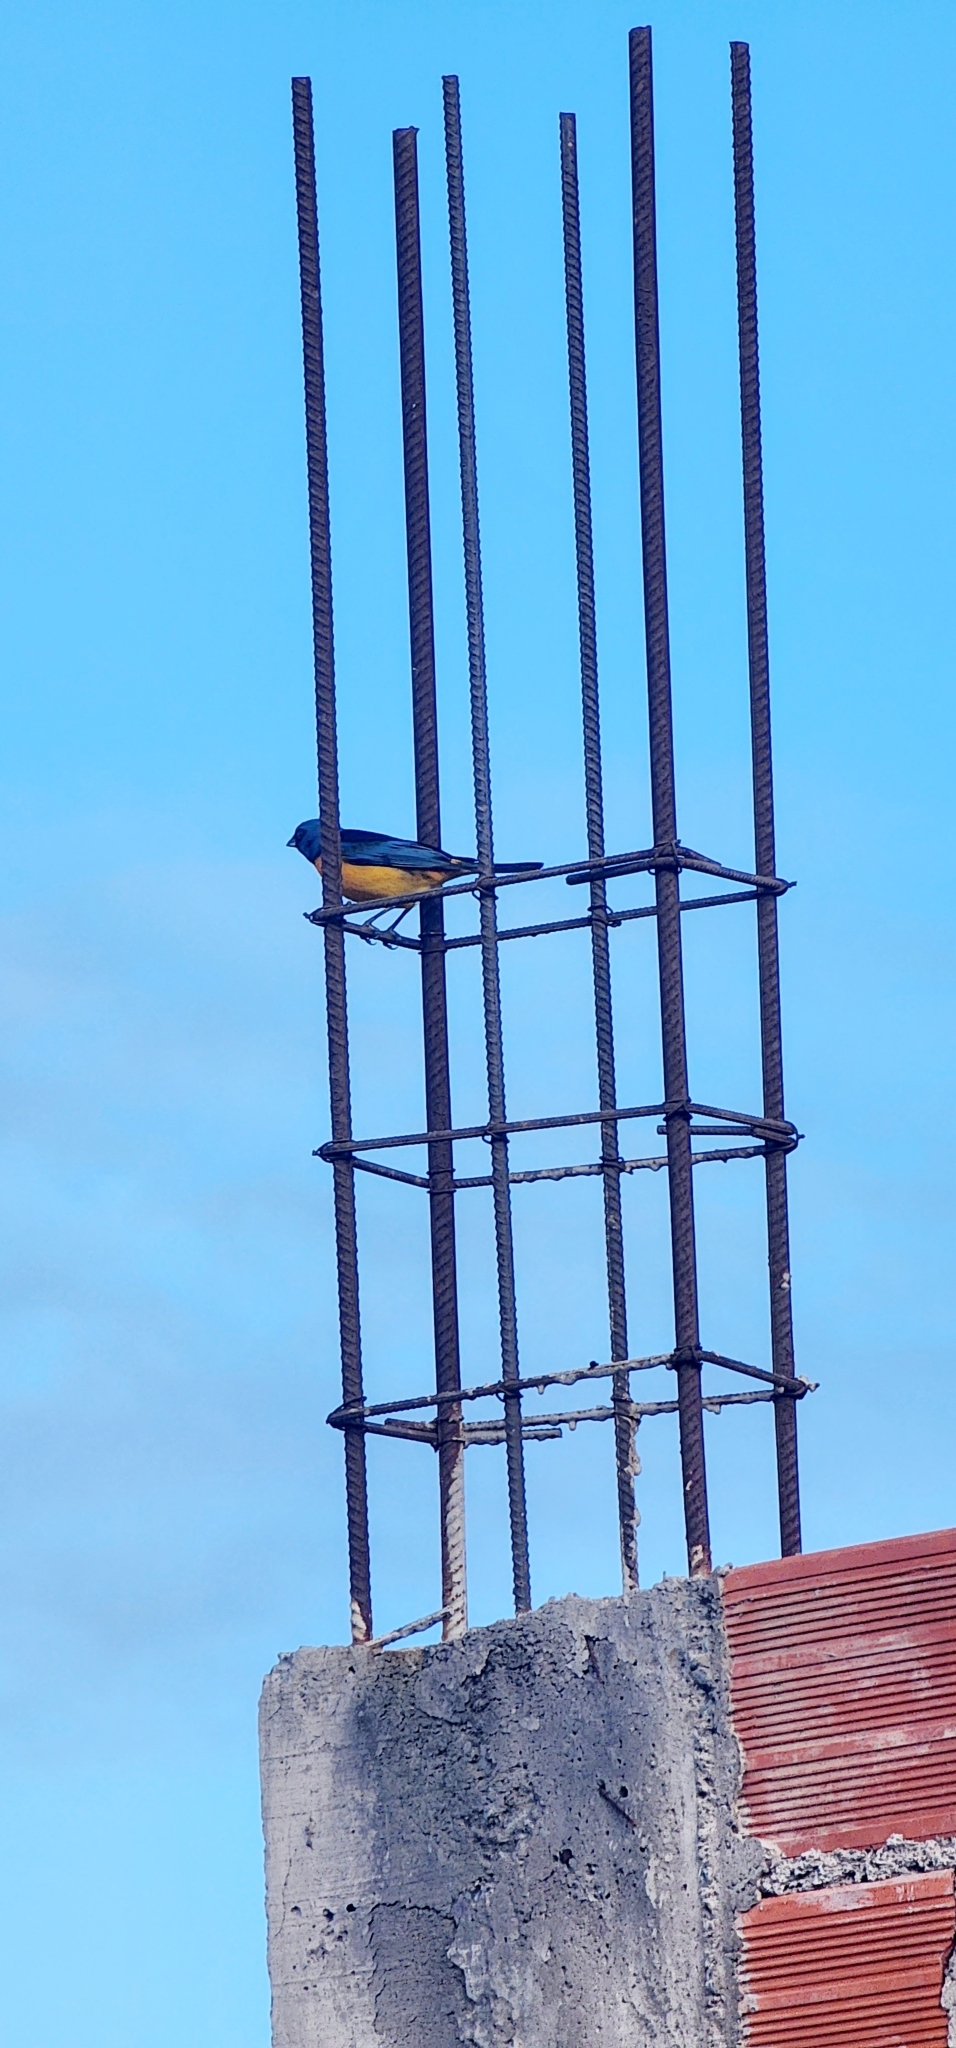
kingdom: Animalia
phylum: Chordata
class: Aves
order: Passeriformes
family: Thraupidae
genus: Rauenia
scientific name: Rauenia bonariensis
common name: Blue-and-yellow tanager
